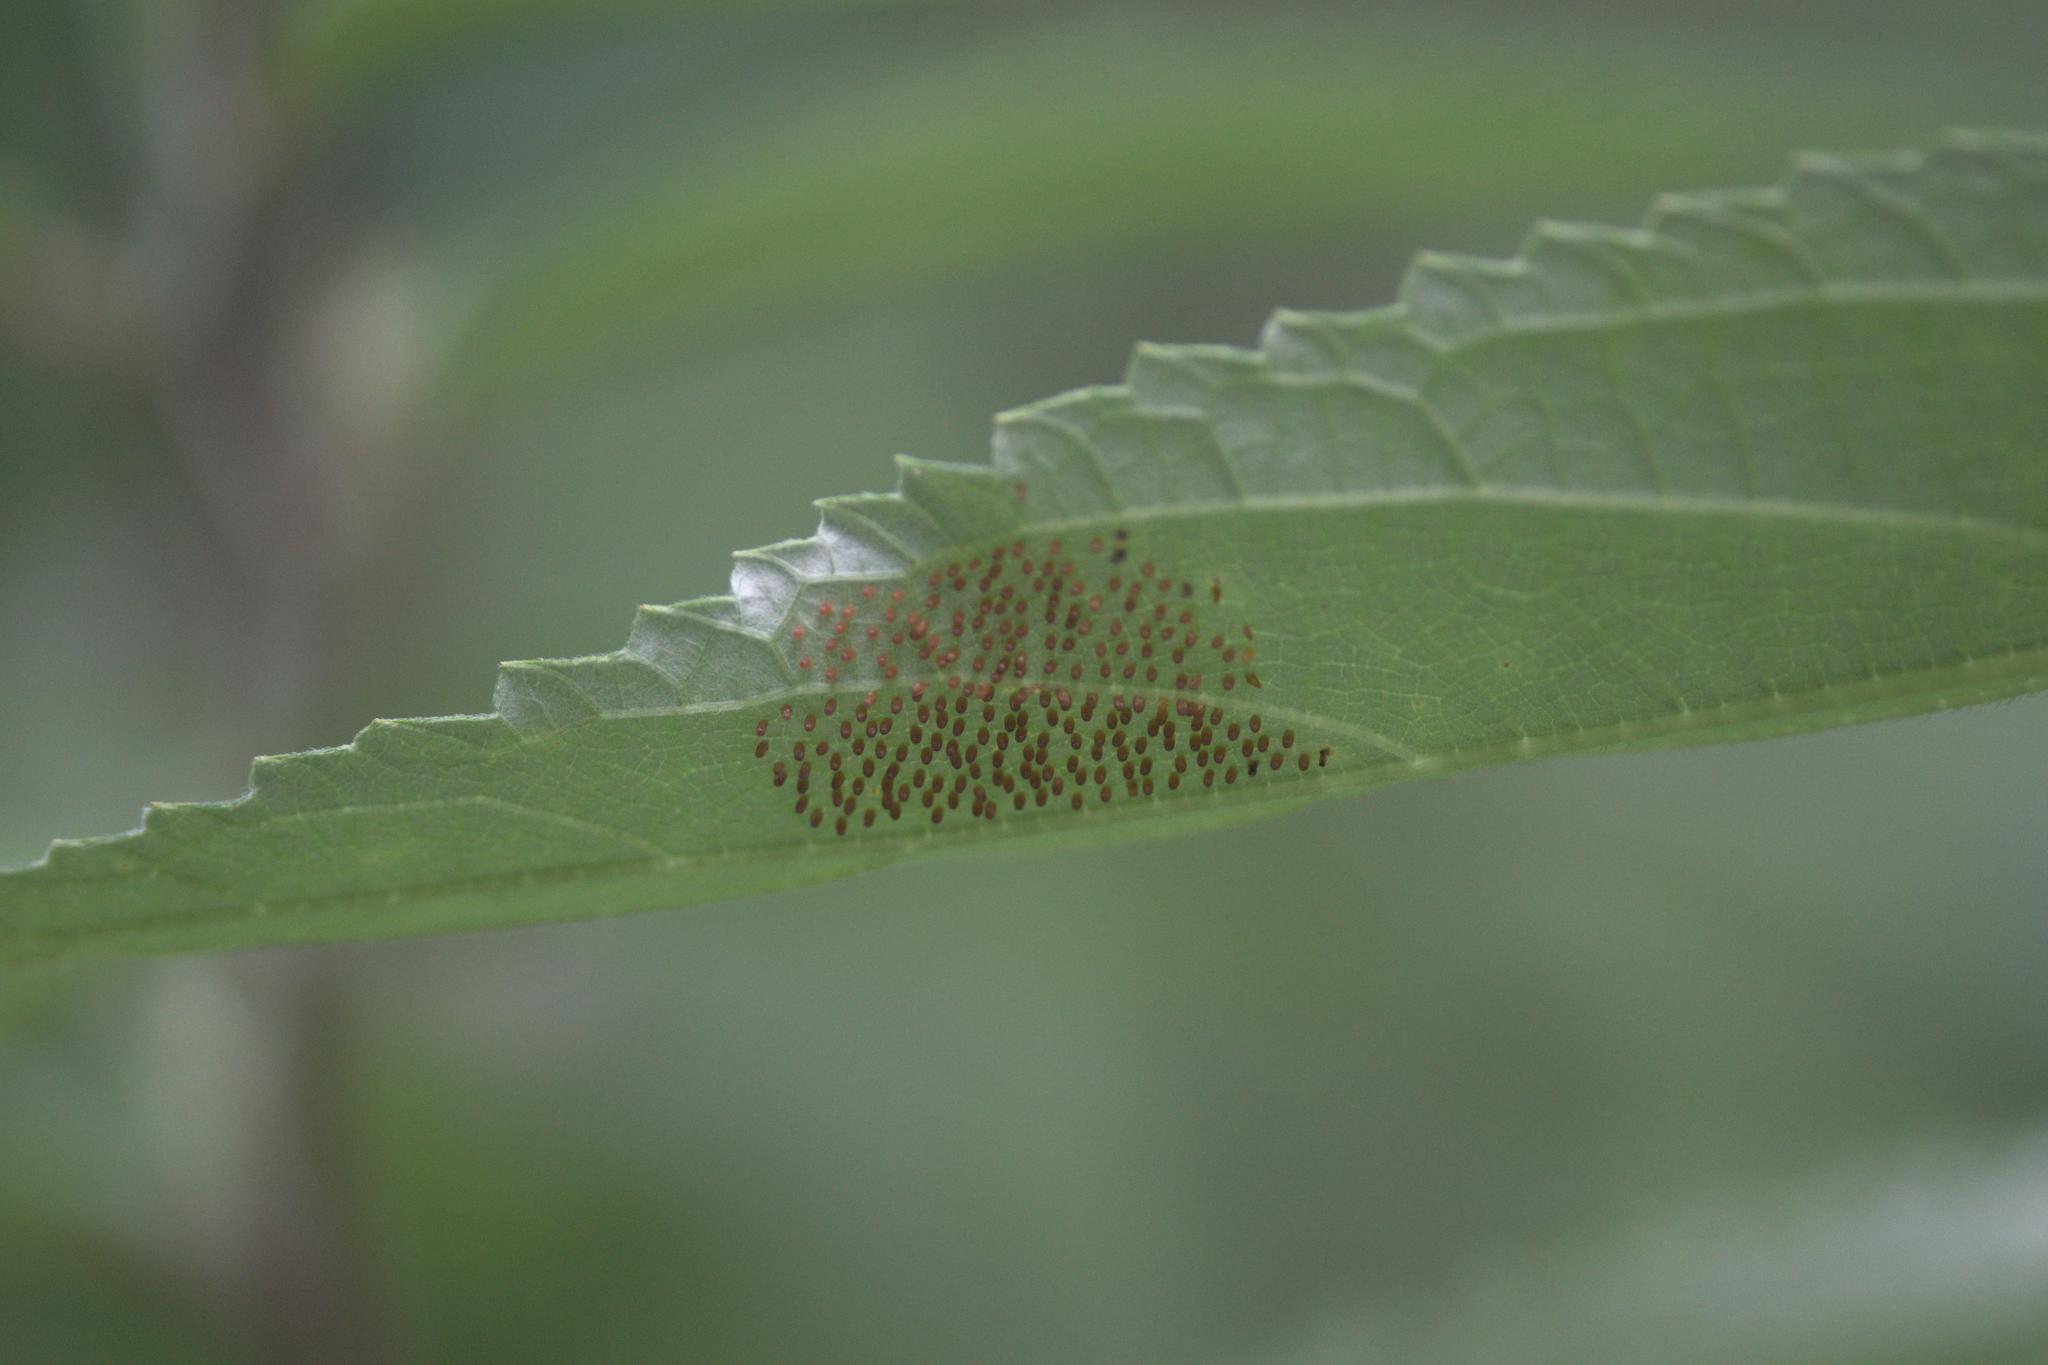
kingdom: Animalia
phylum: Arthropoda
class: Insecta
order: Lepidoptera
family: Nymphalidae
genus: Acraea
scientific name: Acraea Telchinia issoria
